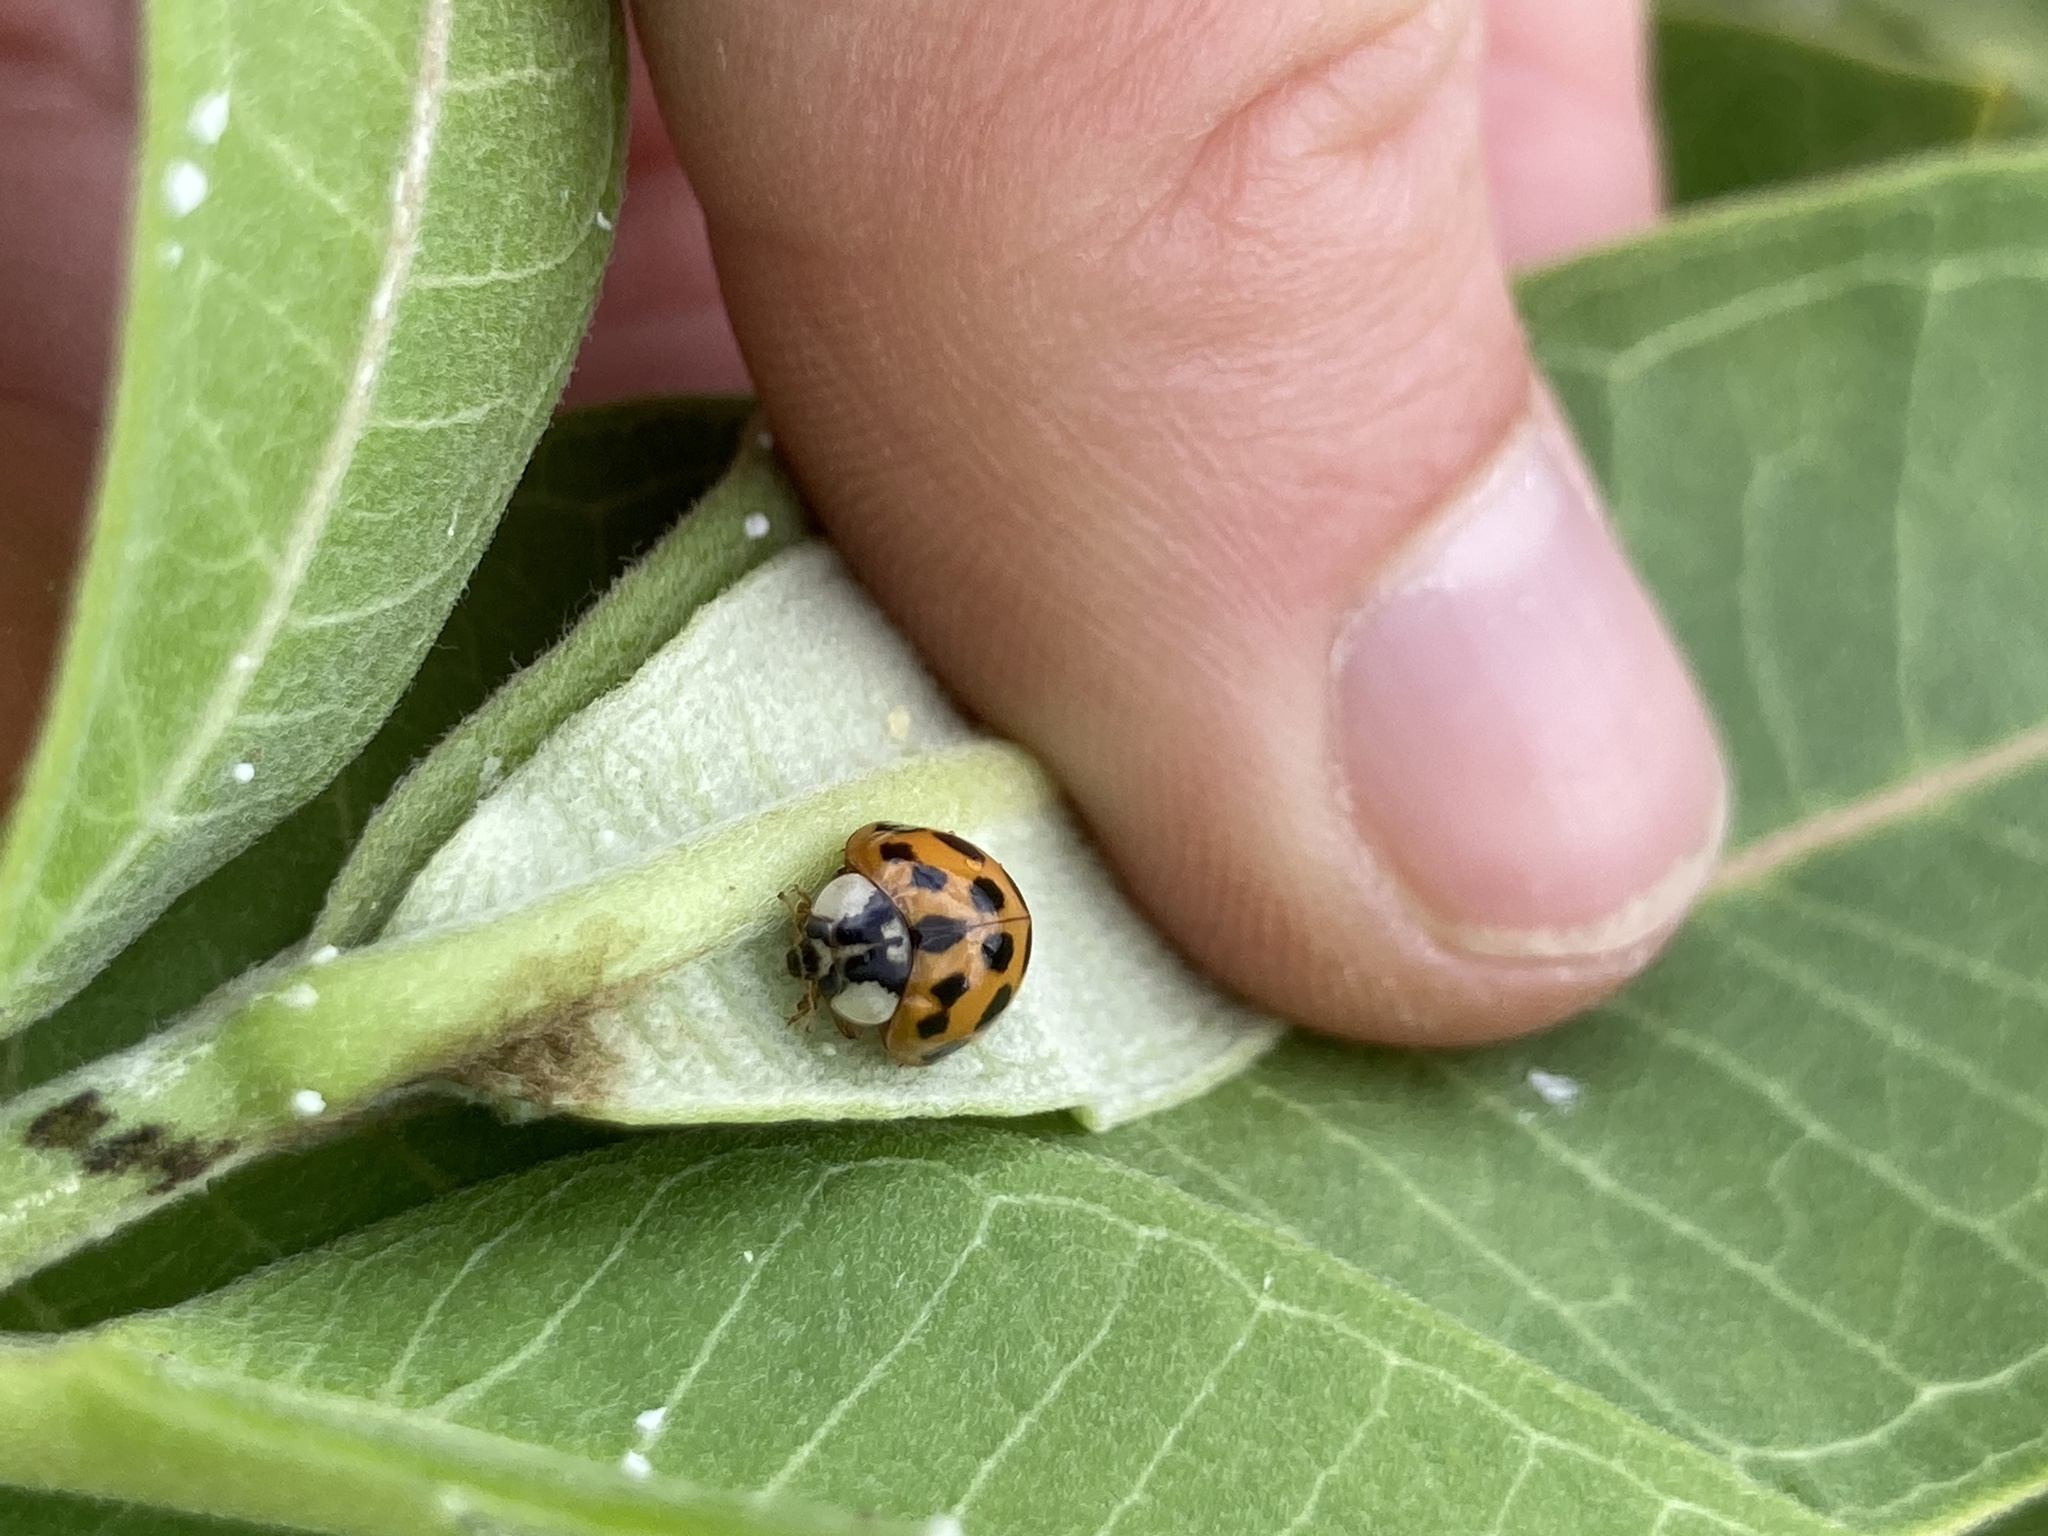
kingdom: Animalia
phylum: Arthropoda
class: Insecta
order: Coleoptera
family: Coccinellidae
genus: Harmonia
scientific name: Harmonia axyridis
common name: Harlequin ladybird
